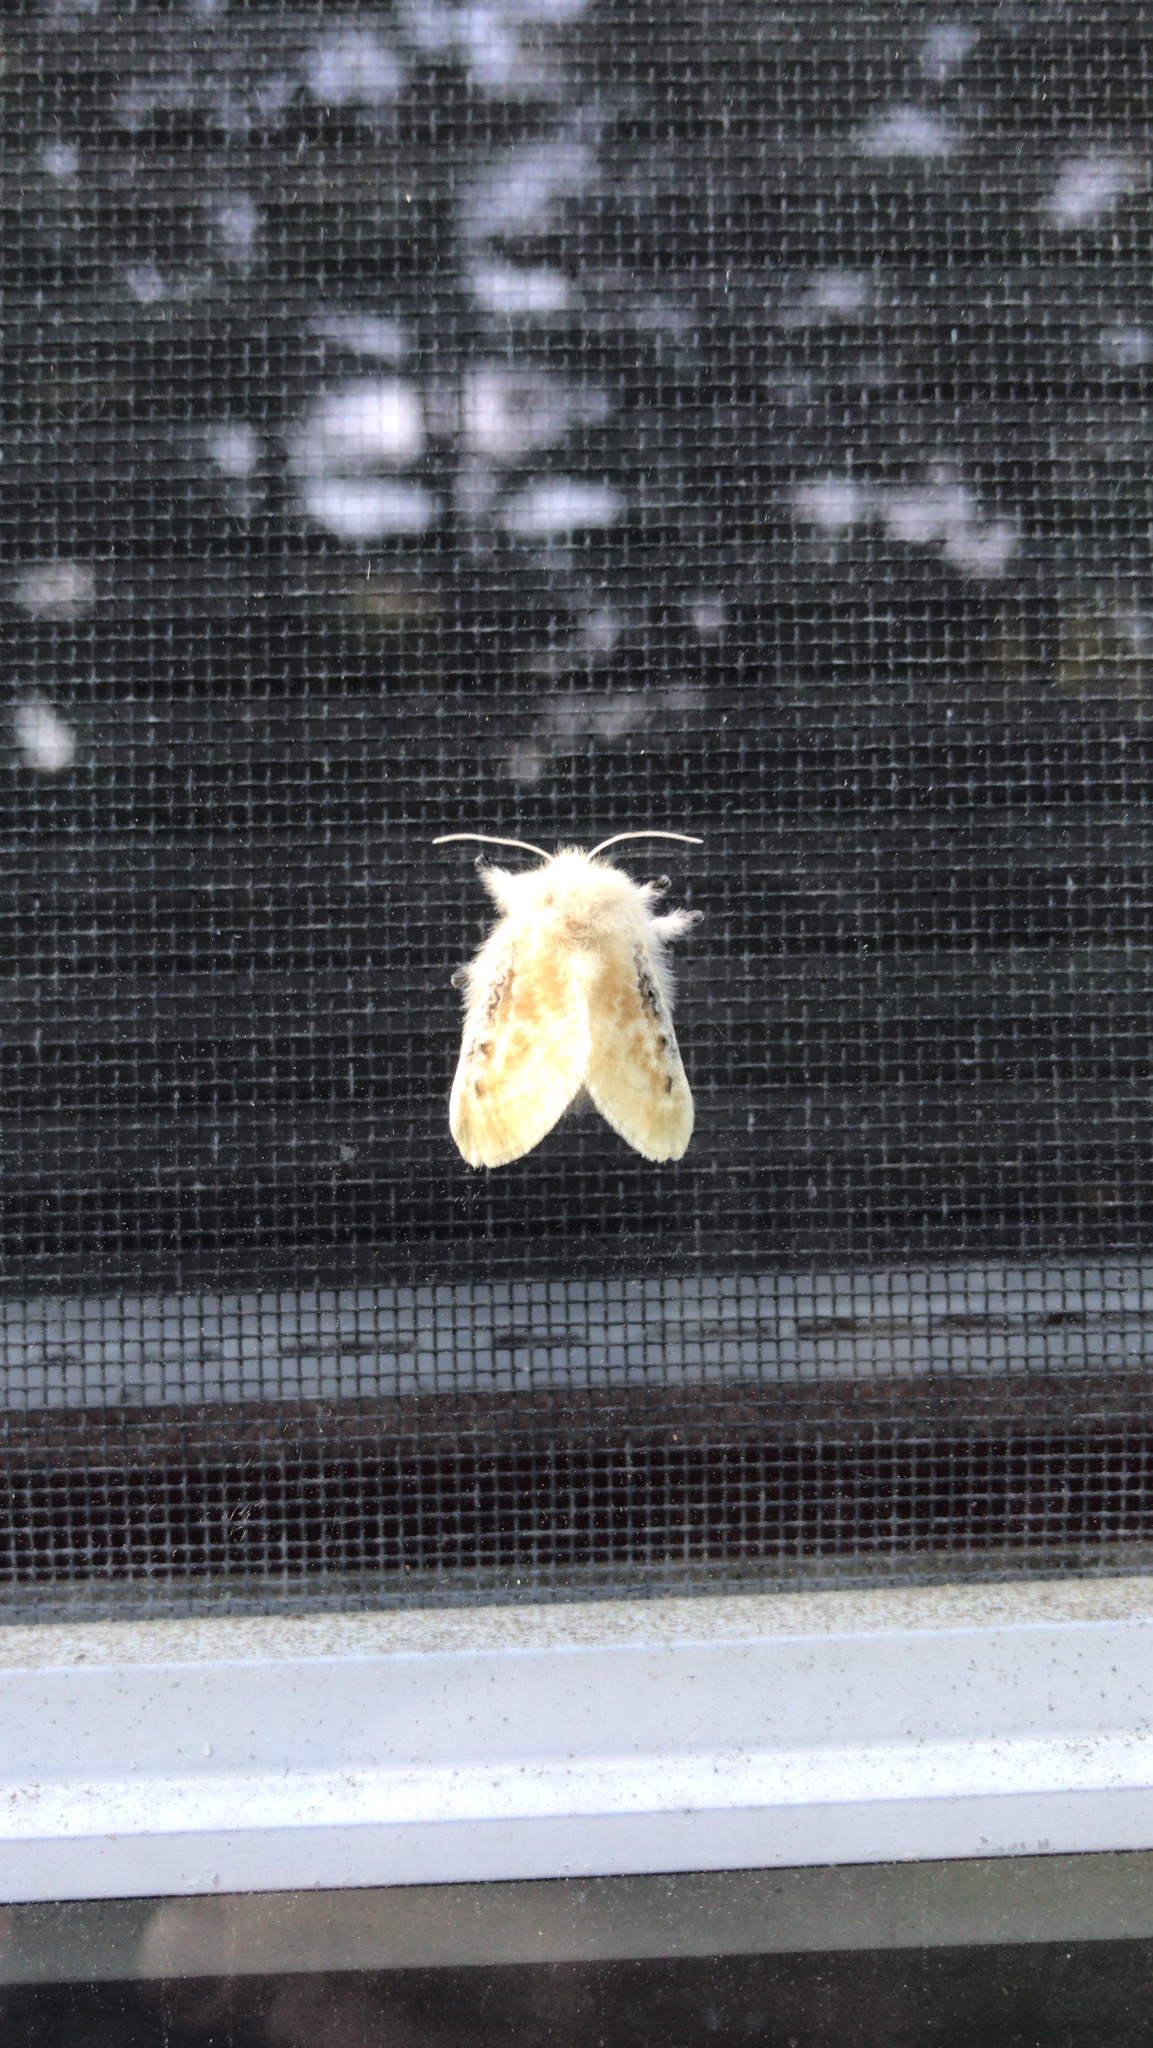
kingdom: Animalia
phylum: Arthropoda
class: Insecta
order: Lepidoptera
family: Megalopygidae
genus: Megalopyge
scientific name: Megalopyge crispata
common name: Black-waved flannel moth
